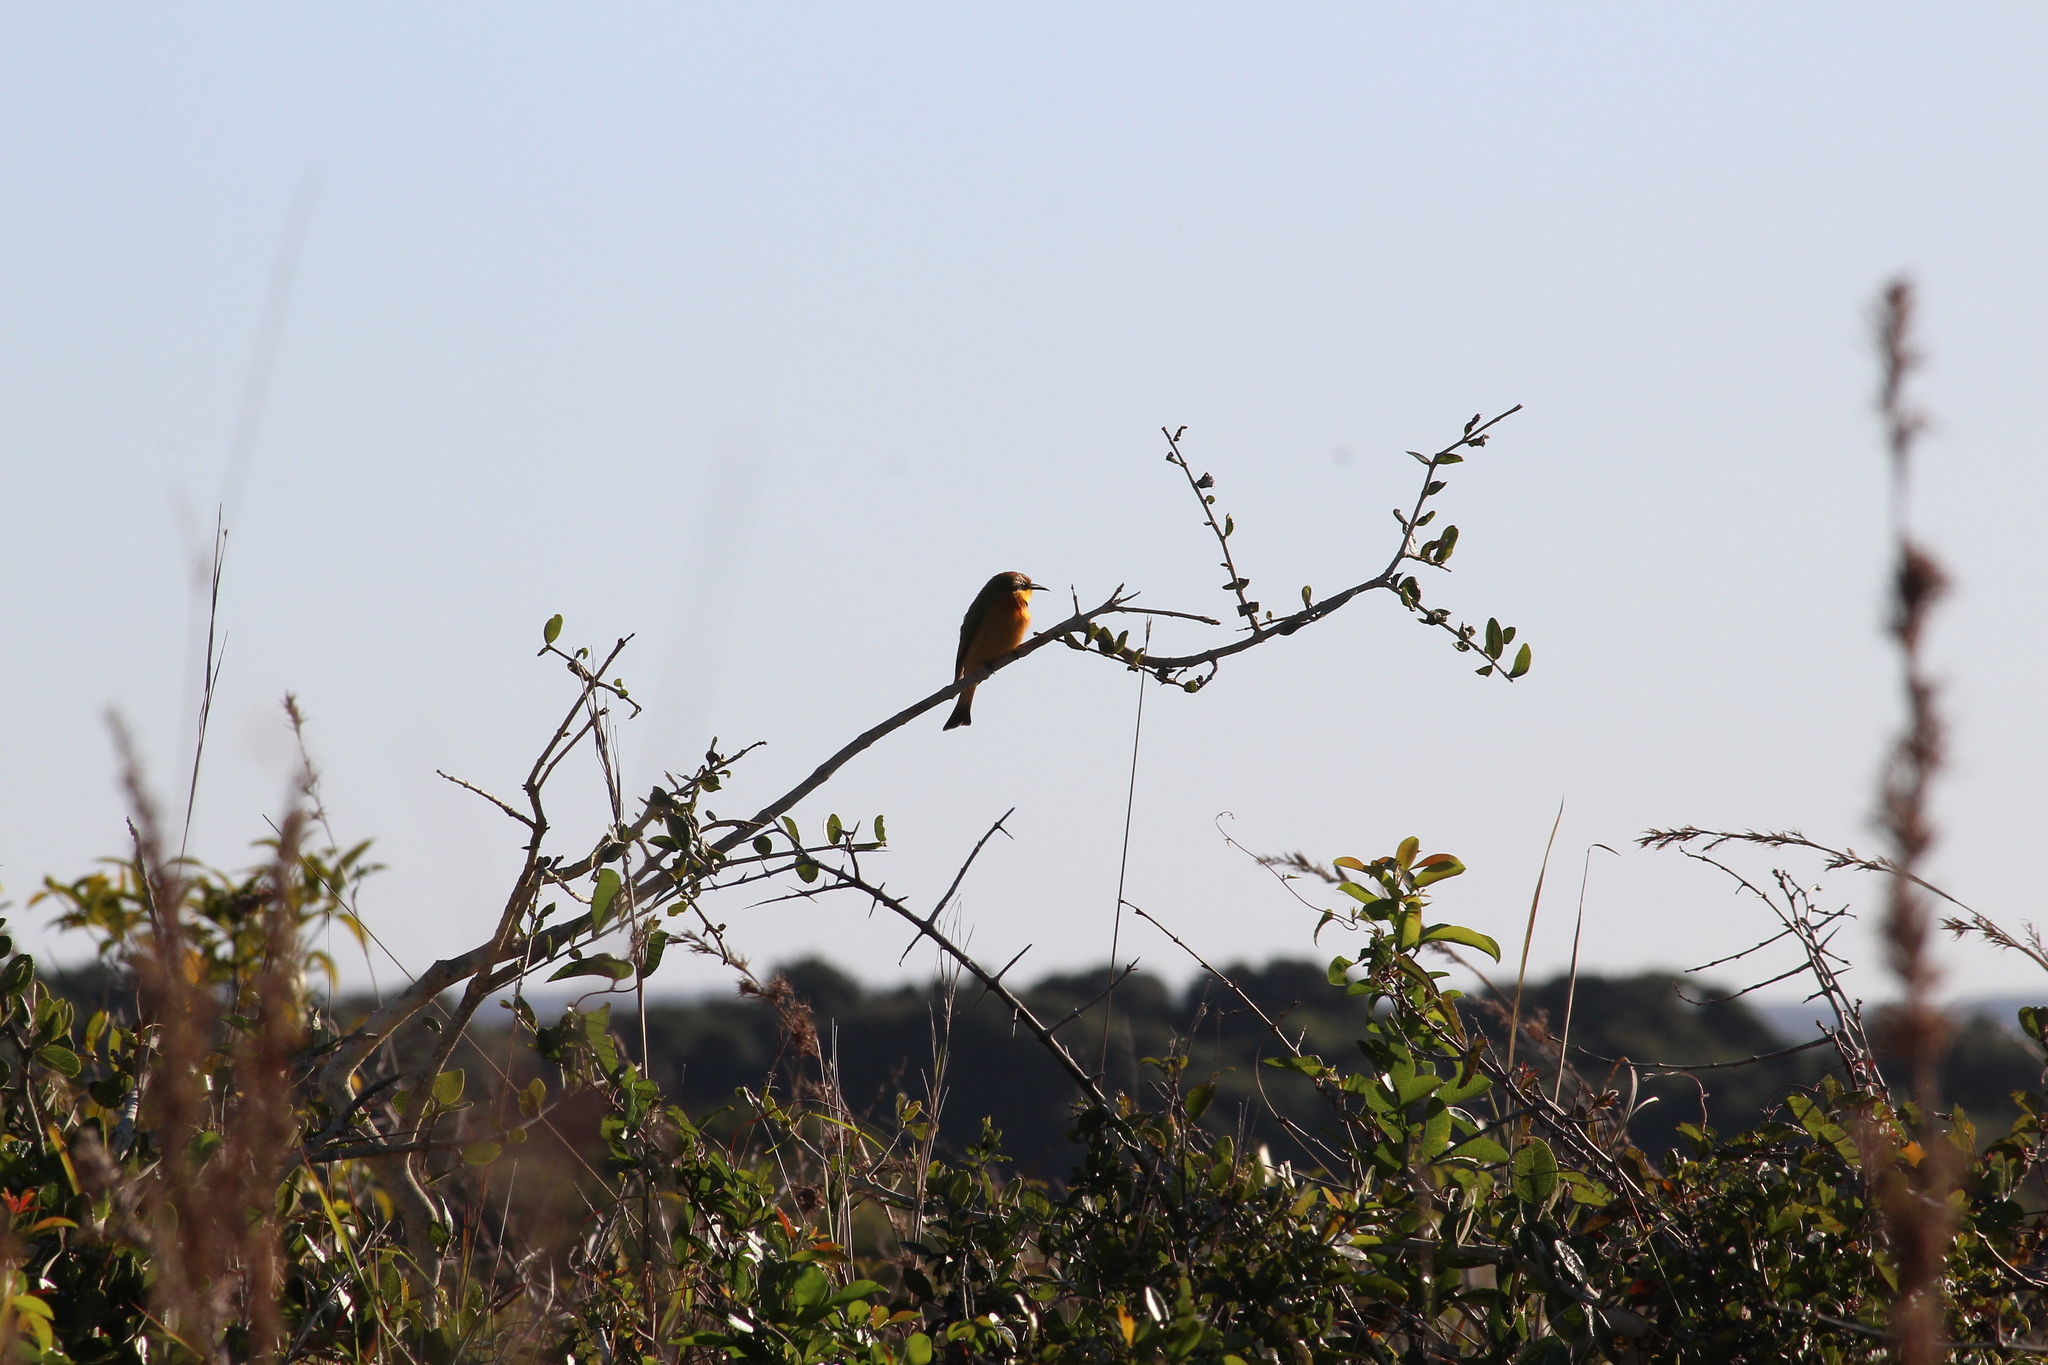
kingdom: Animalia
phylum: Chordata
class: Aves
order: Coraciiformes
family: Meropidae
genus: Merops
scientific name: Merops pusillus
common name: Little bee-eater
